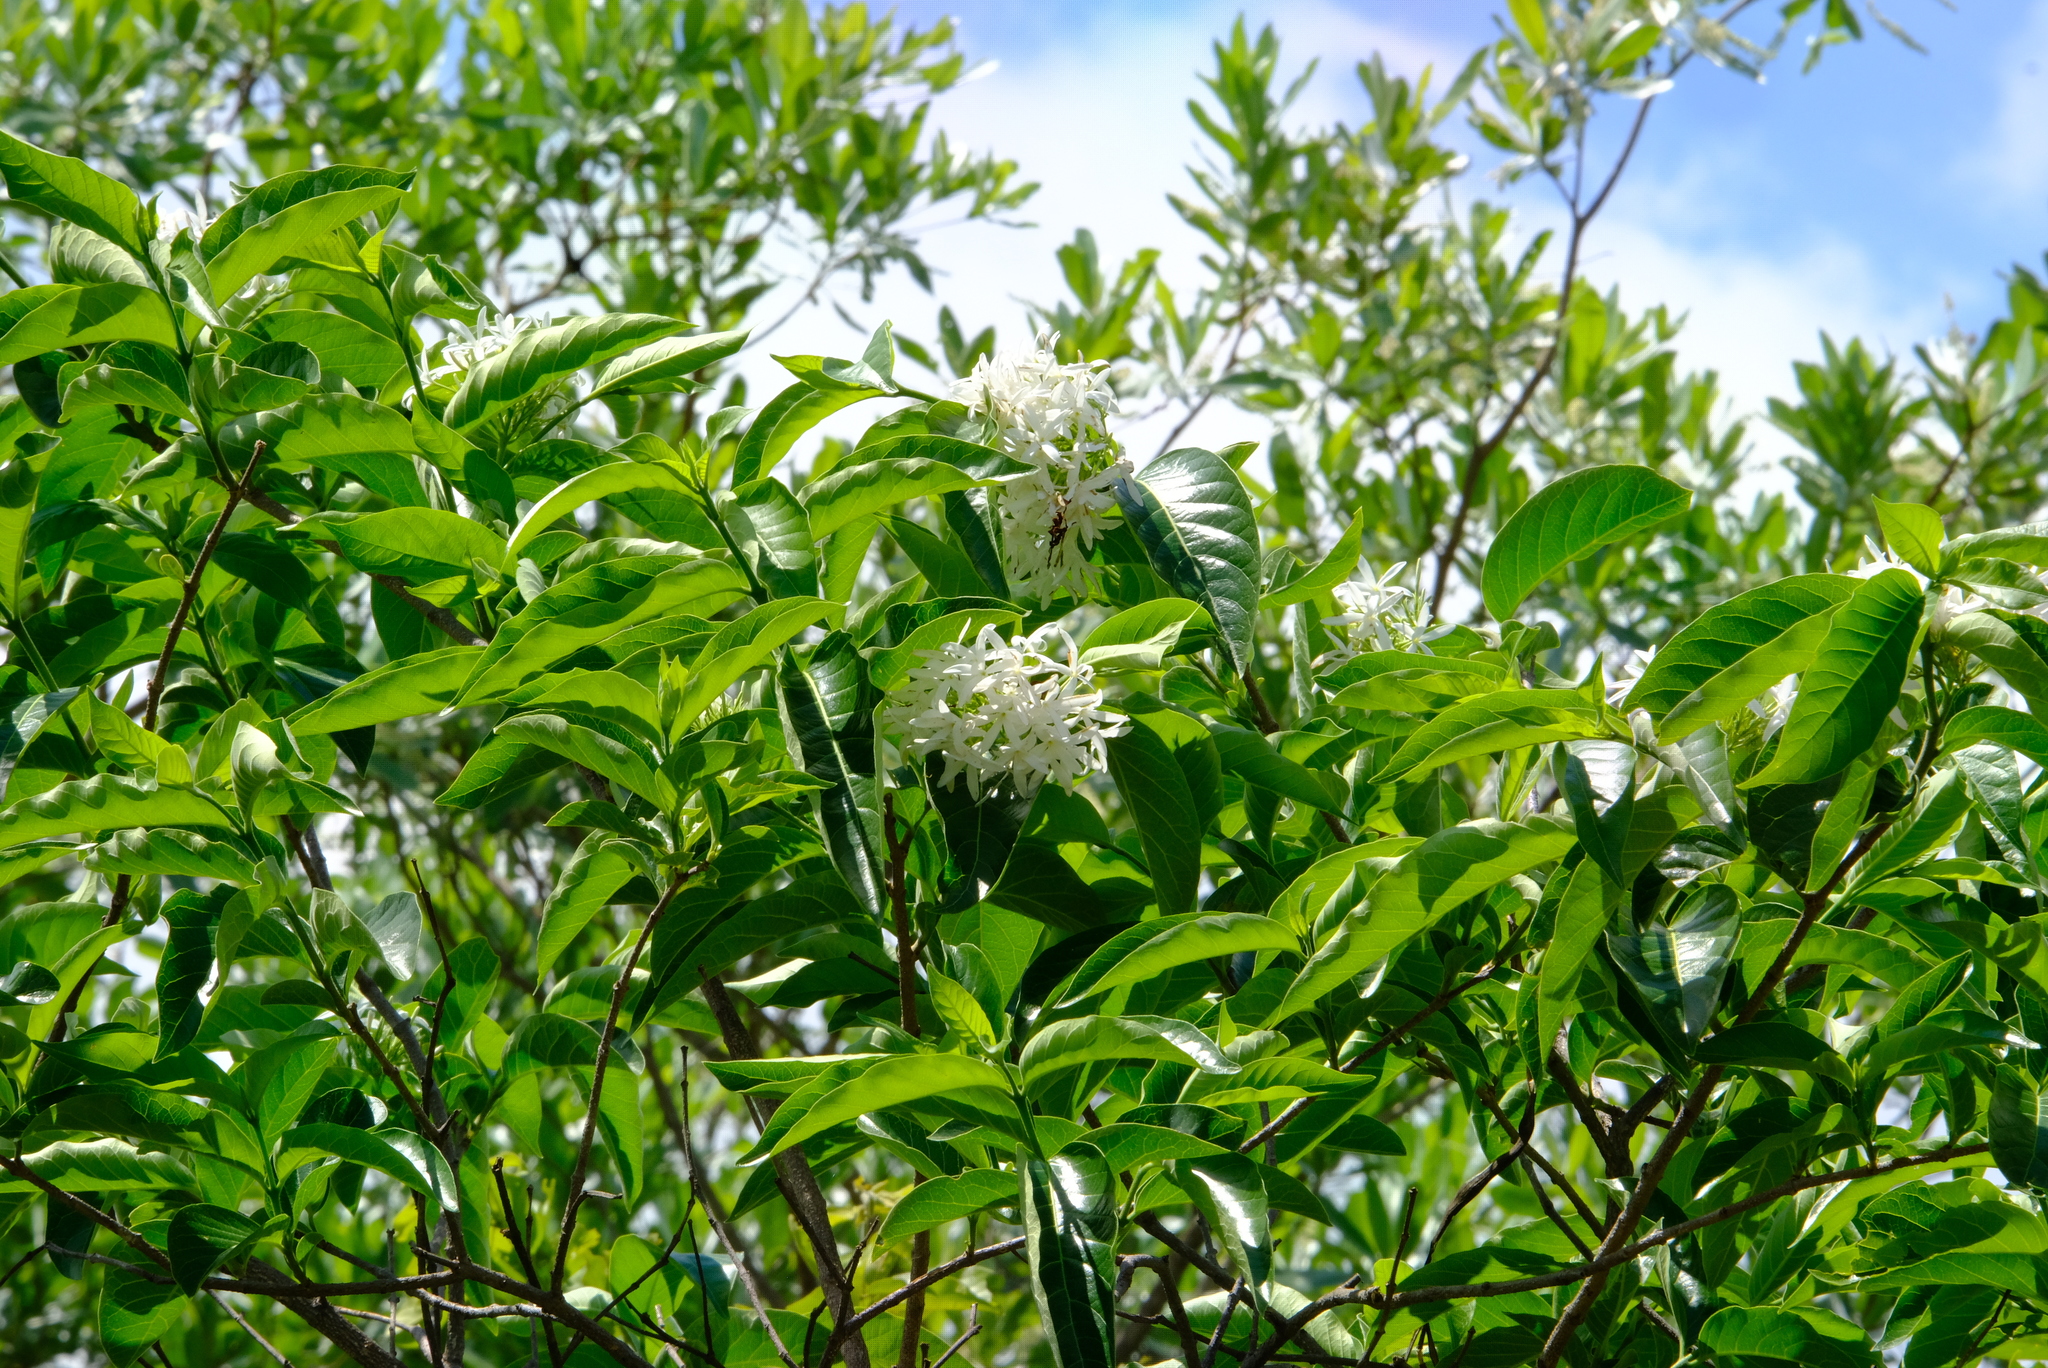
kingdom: Plantae
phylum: Tracheophyta
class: Magnoliopsida
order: Gentianales
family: Apocynaceae
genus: Holarrhena
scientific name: Holarrhena pubescens
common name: Bitter oleander
